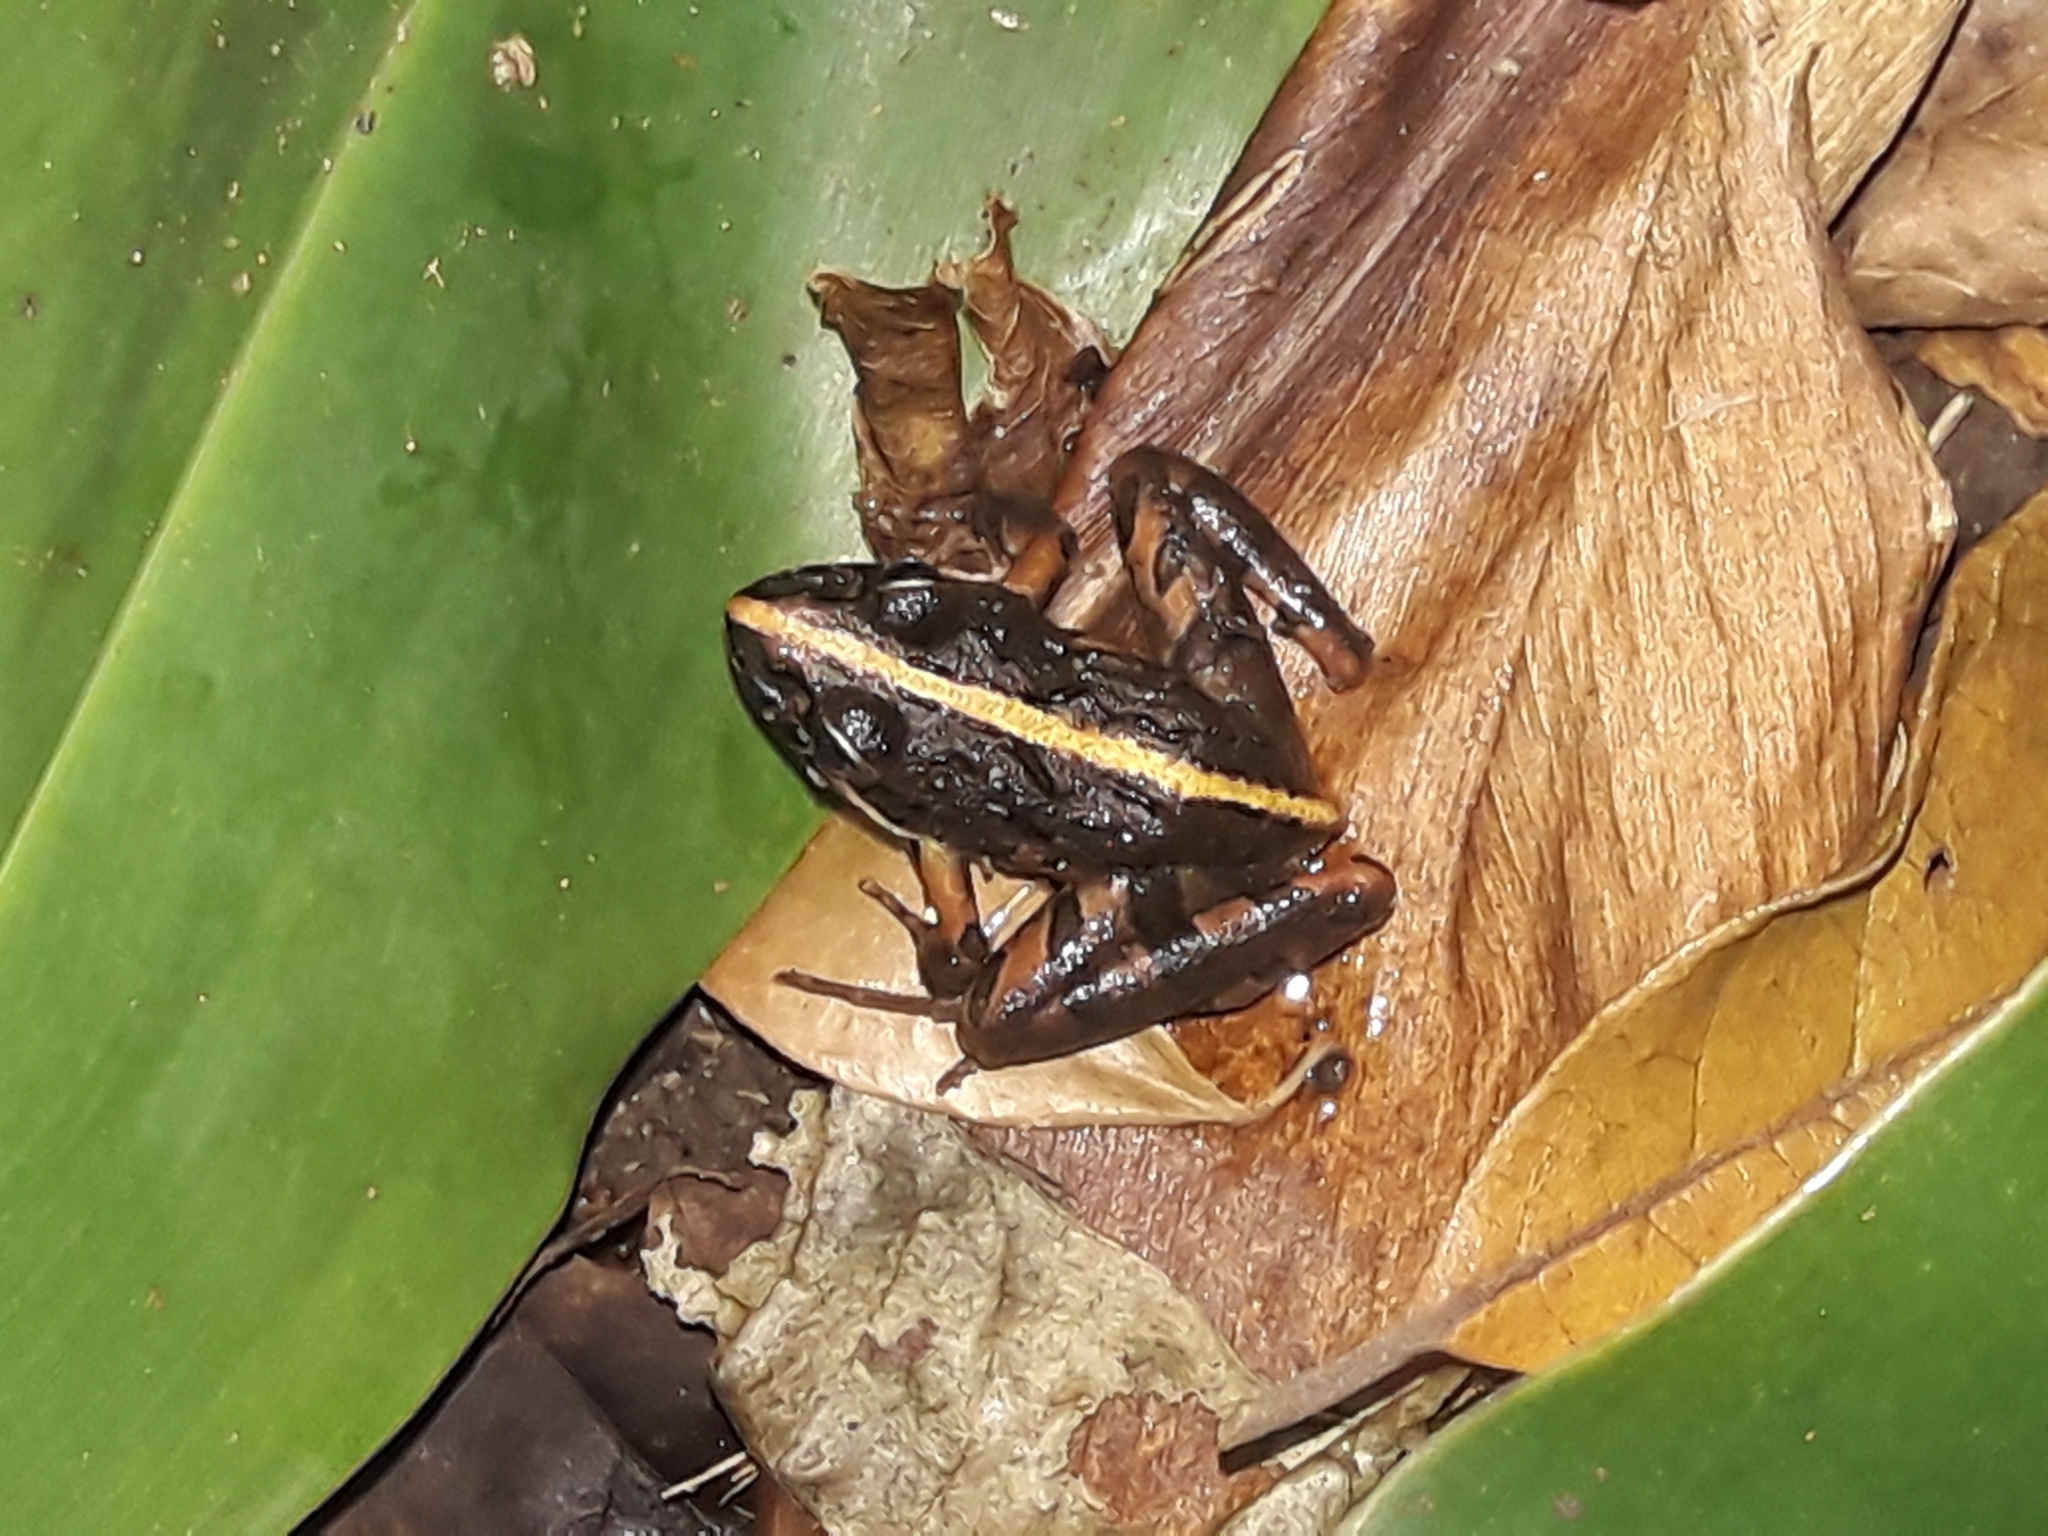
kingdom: Animalia
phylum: Chordata
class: Amphibia
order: Anura
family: Pyxicephalidae
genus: Strongylopus
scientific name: Strongylopus grayii
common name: Gray's stream frog
